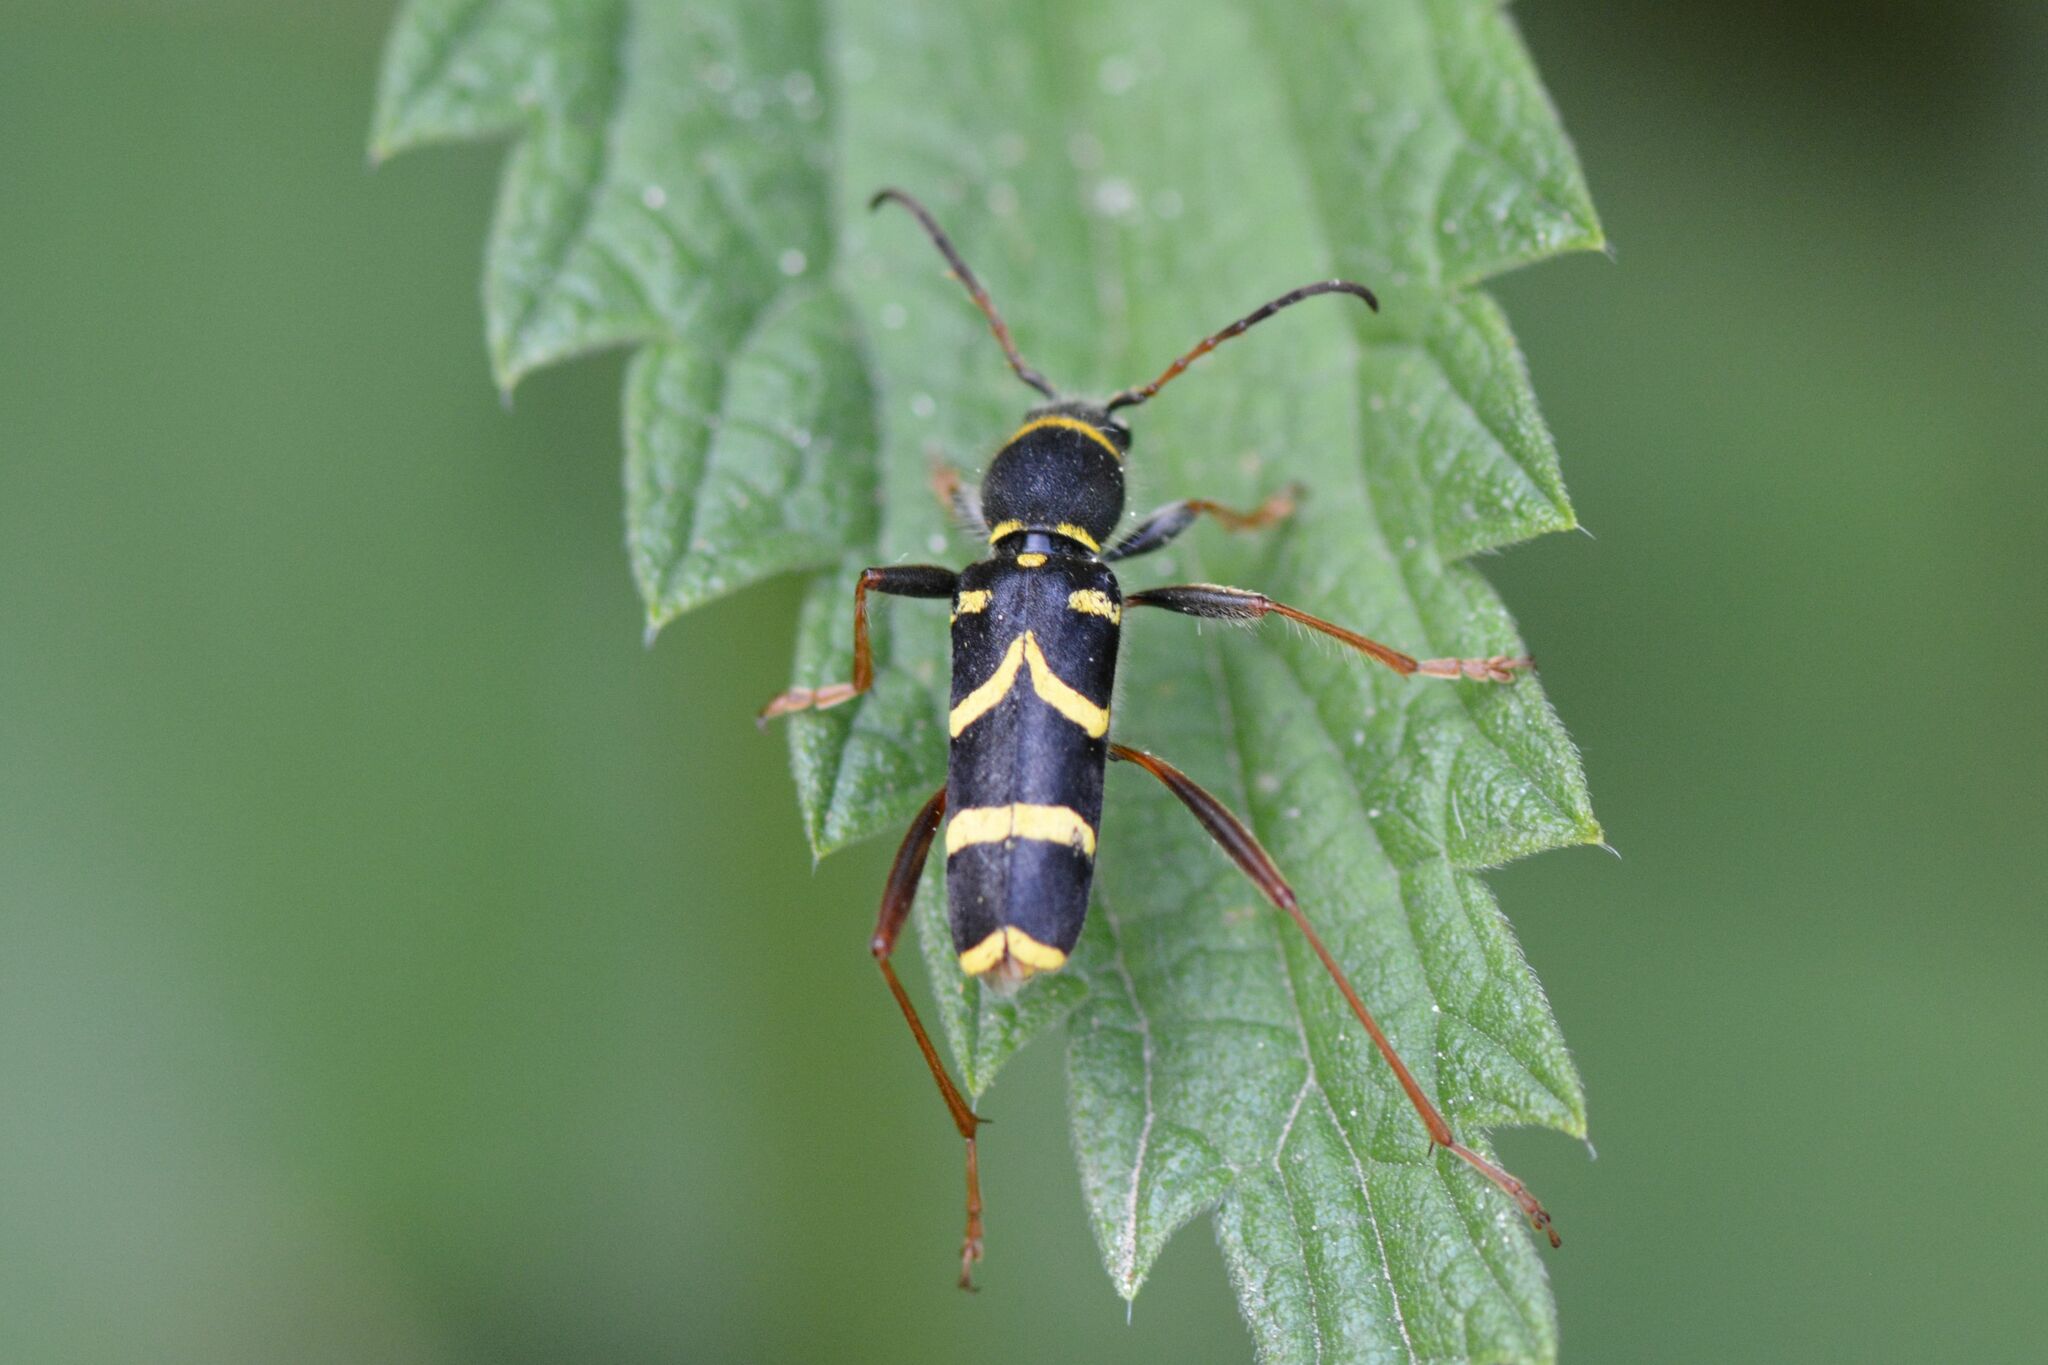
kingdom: Animalia
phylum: Arthropoda
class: Insecta
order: Coleoptera
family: Cerambycidae
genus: Clytus
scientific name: Clytus arietis
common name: Wasp beetle
